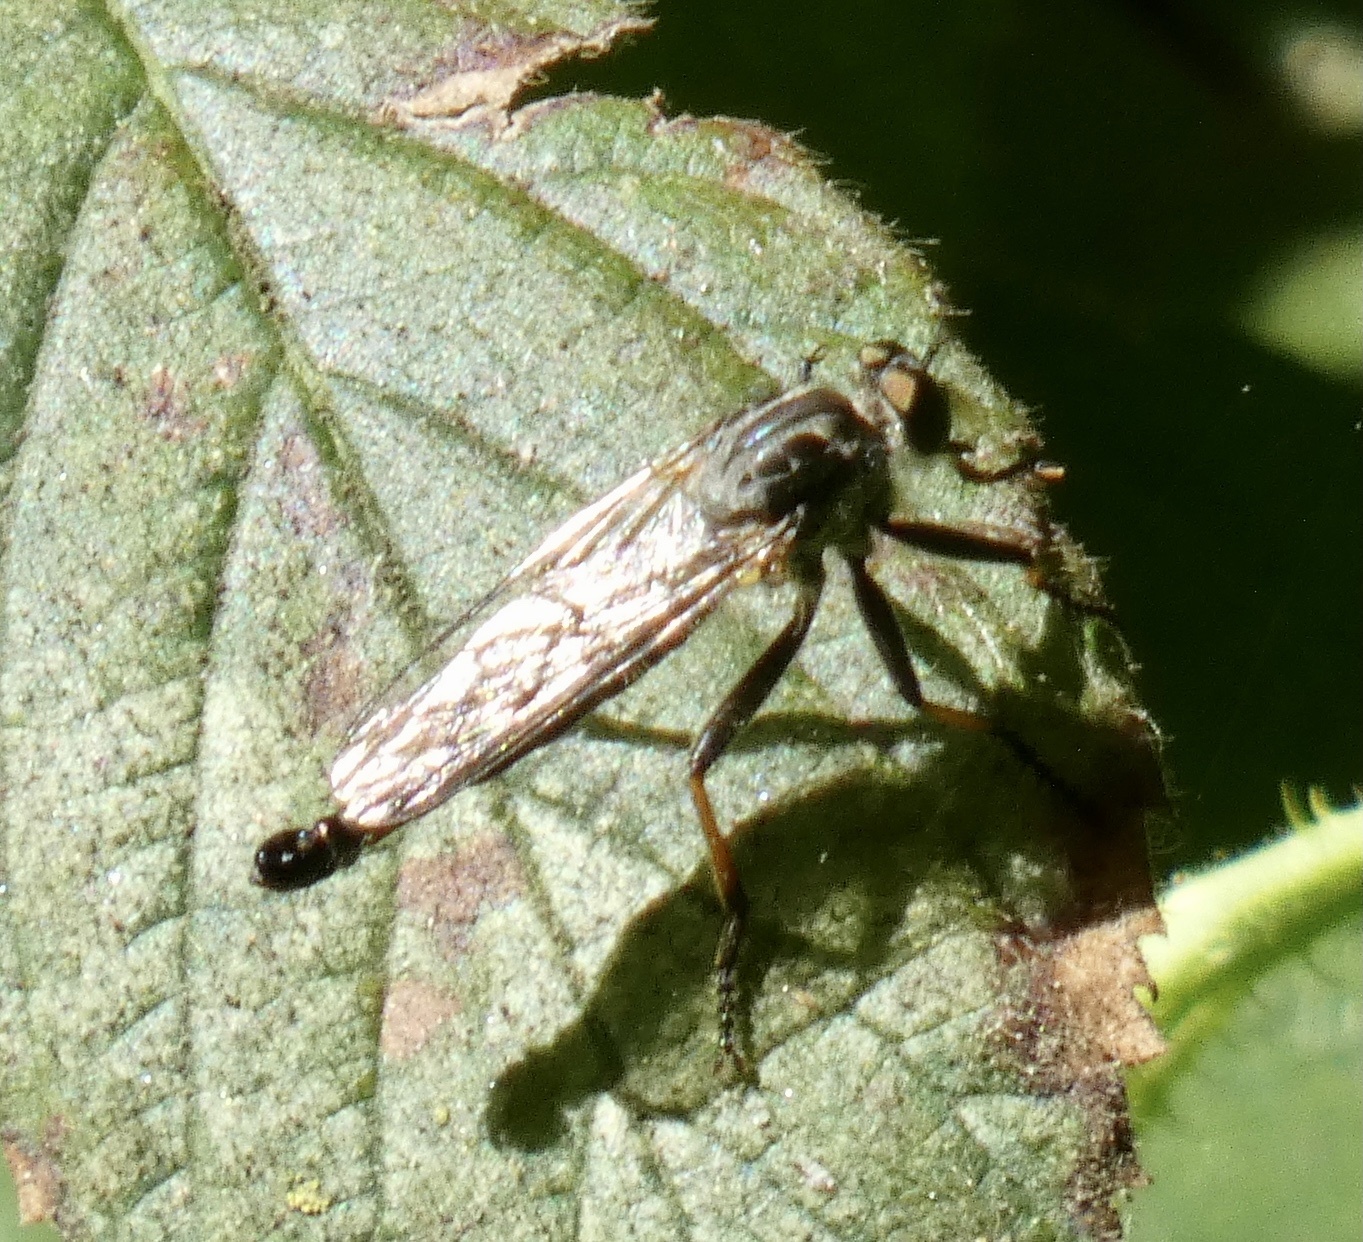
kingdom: Animalia
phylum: Arthropoda
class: Insecta
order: Diptera
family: Asilidae
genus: Neoitamus
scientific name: Neoitamus cyanurus
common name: Common awl robberfly
